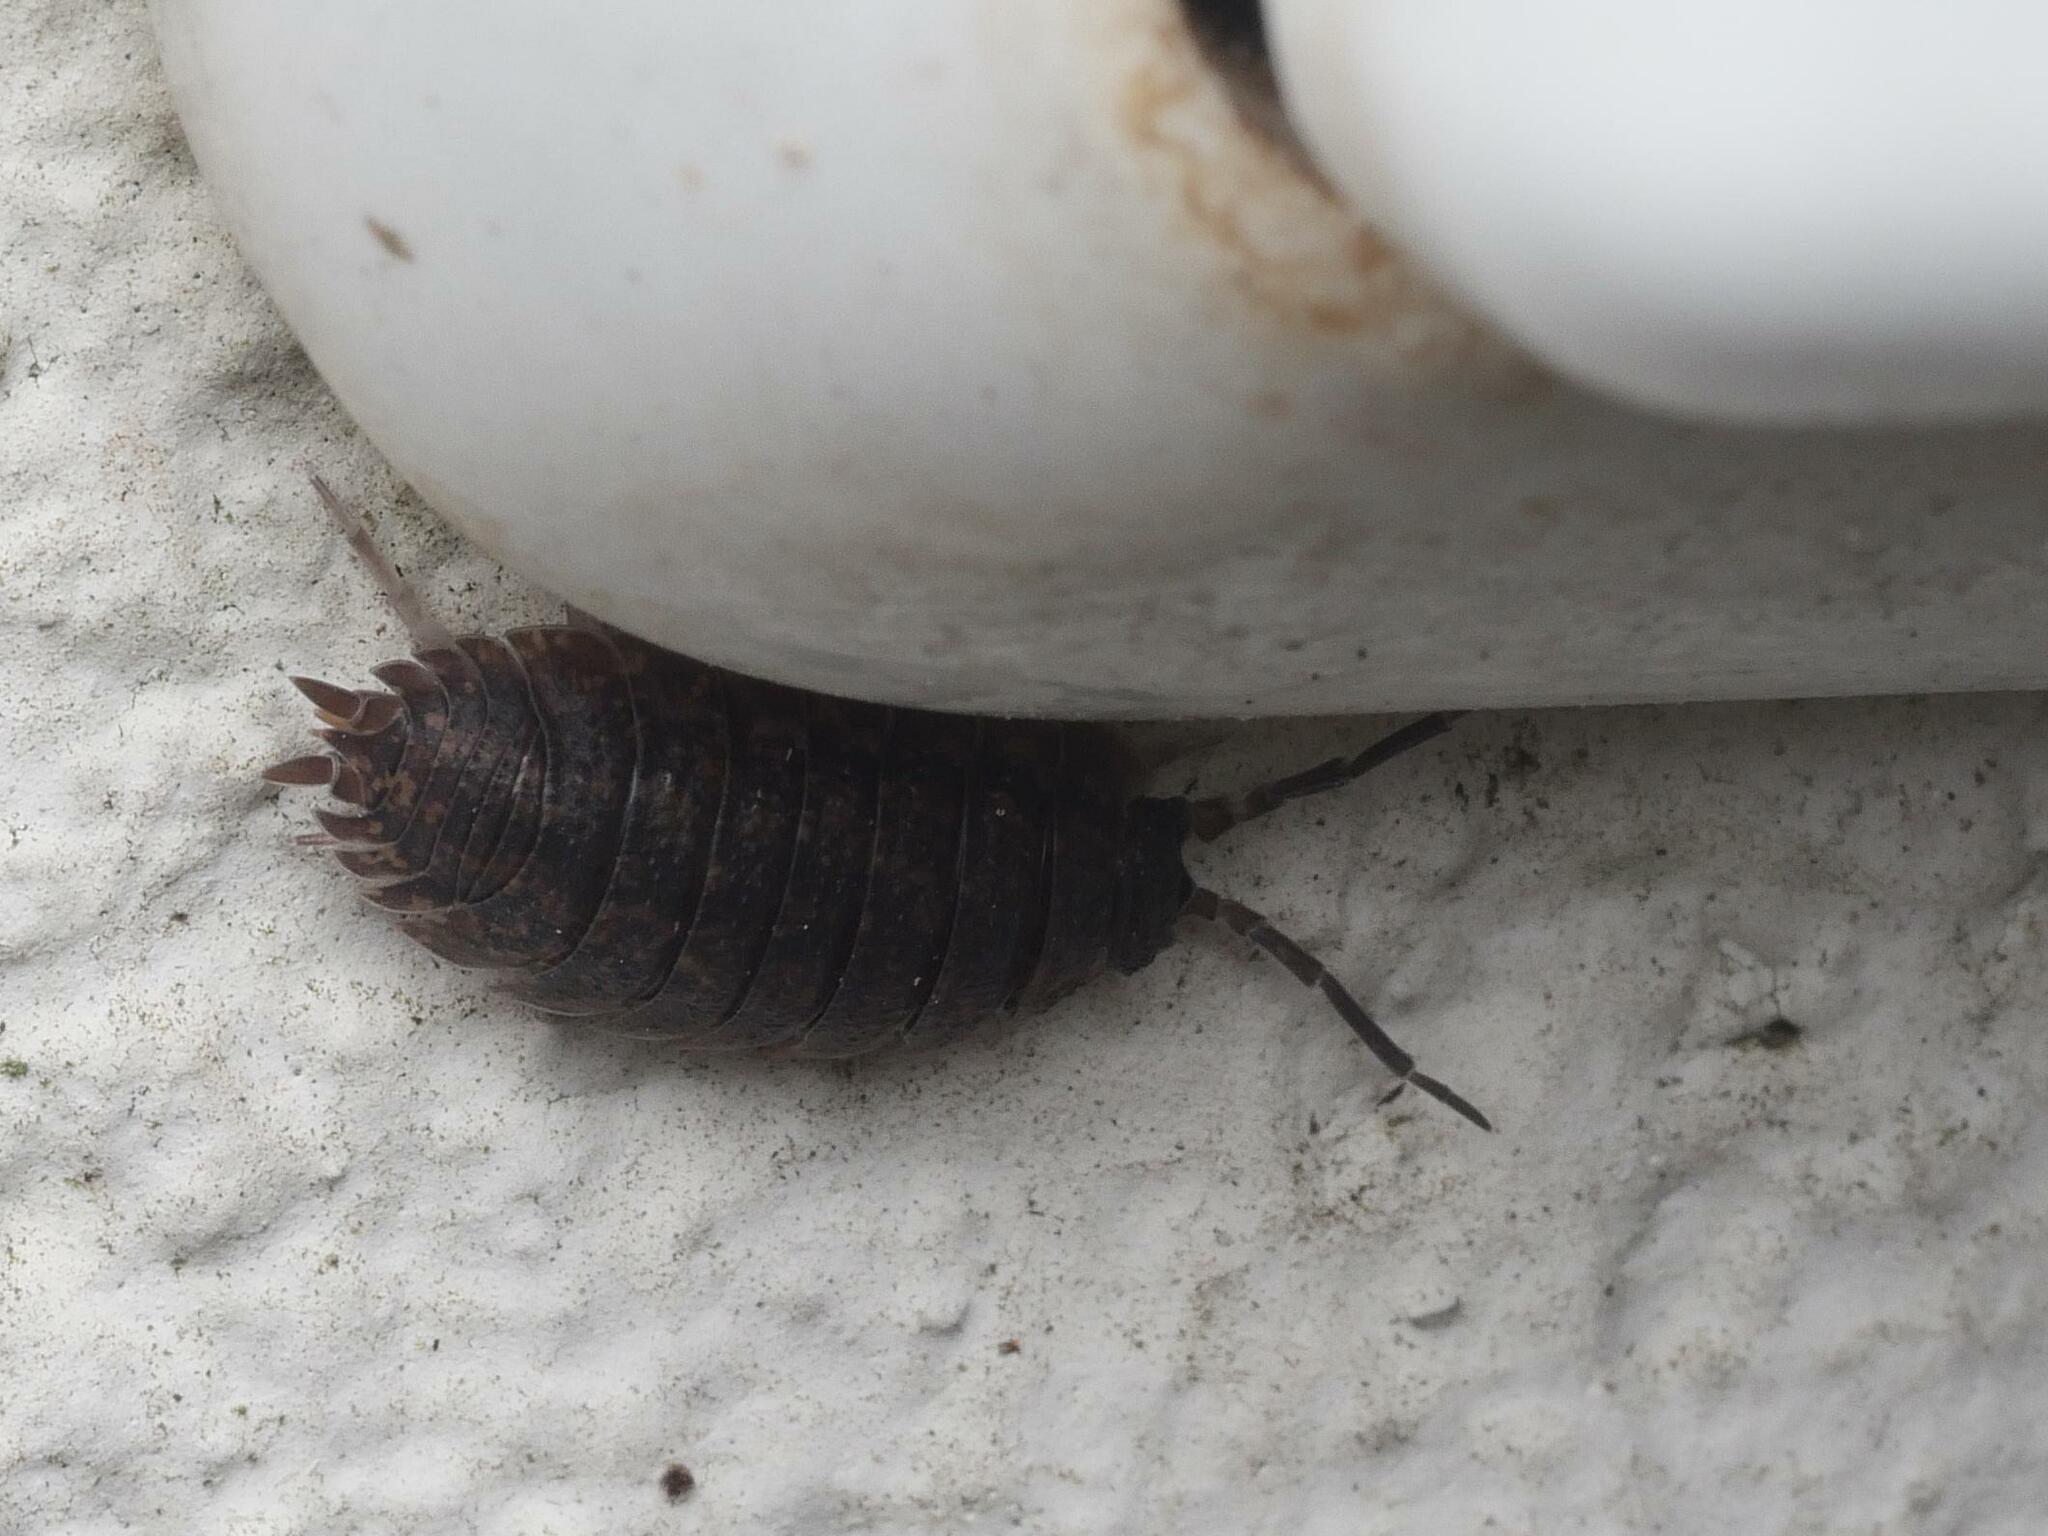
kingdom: Animalia
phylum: Arthropoda
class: Malacostraca
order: Isopoda
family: Porcellionidae
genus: Porcellio
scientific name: Porcellio scaber
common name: Common rough woodlouse
